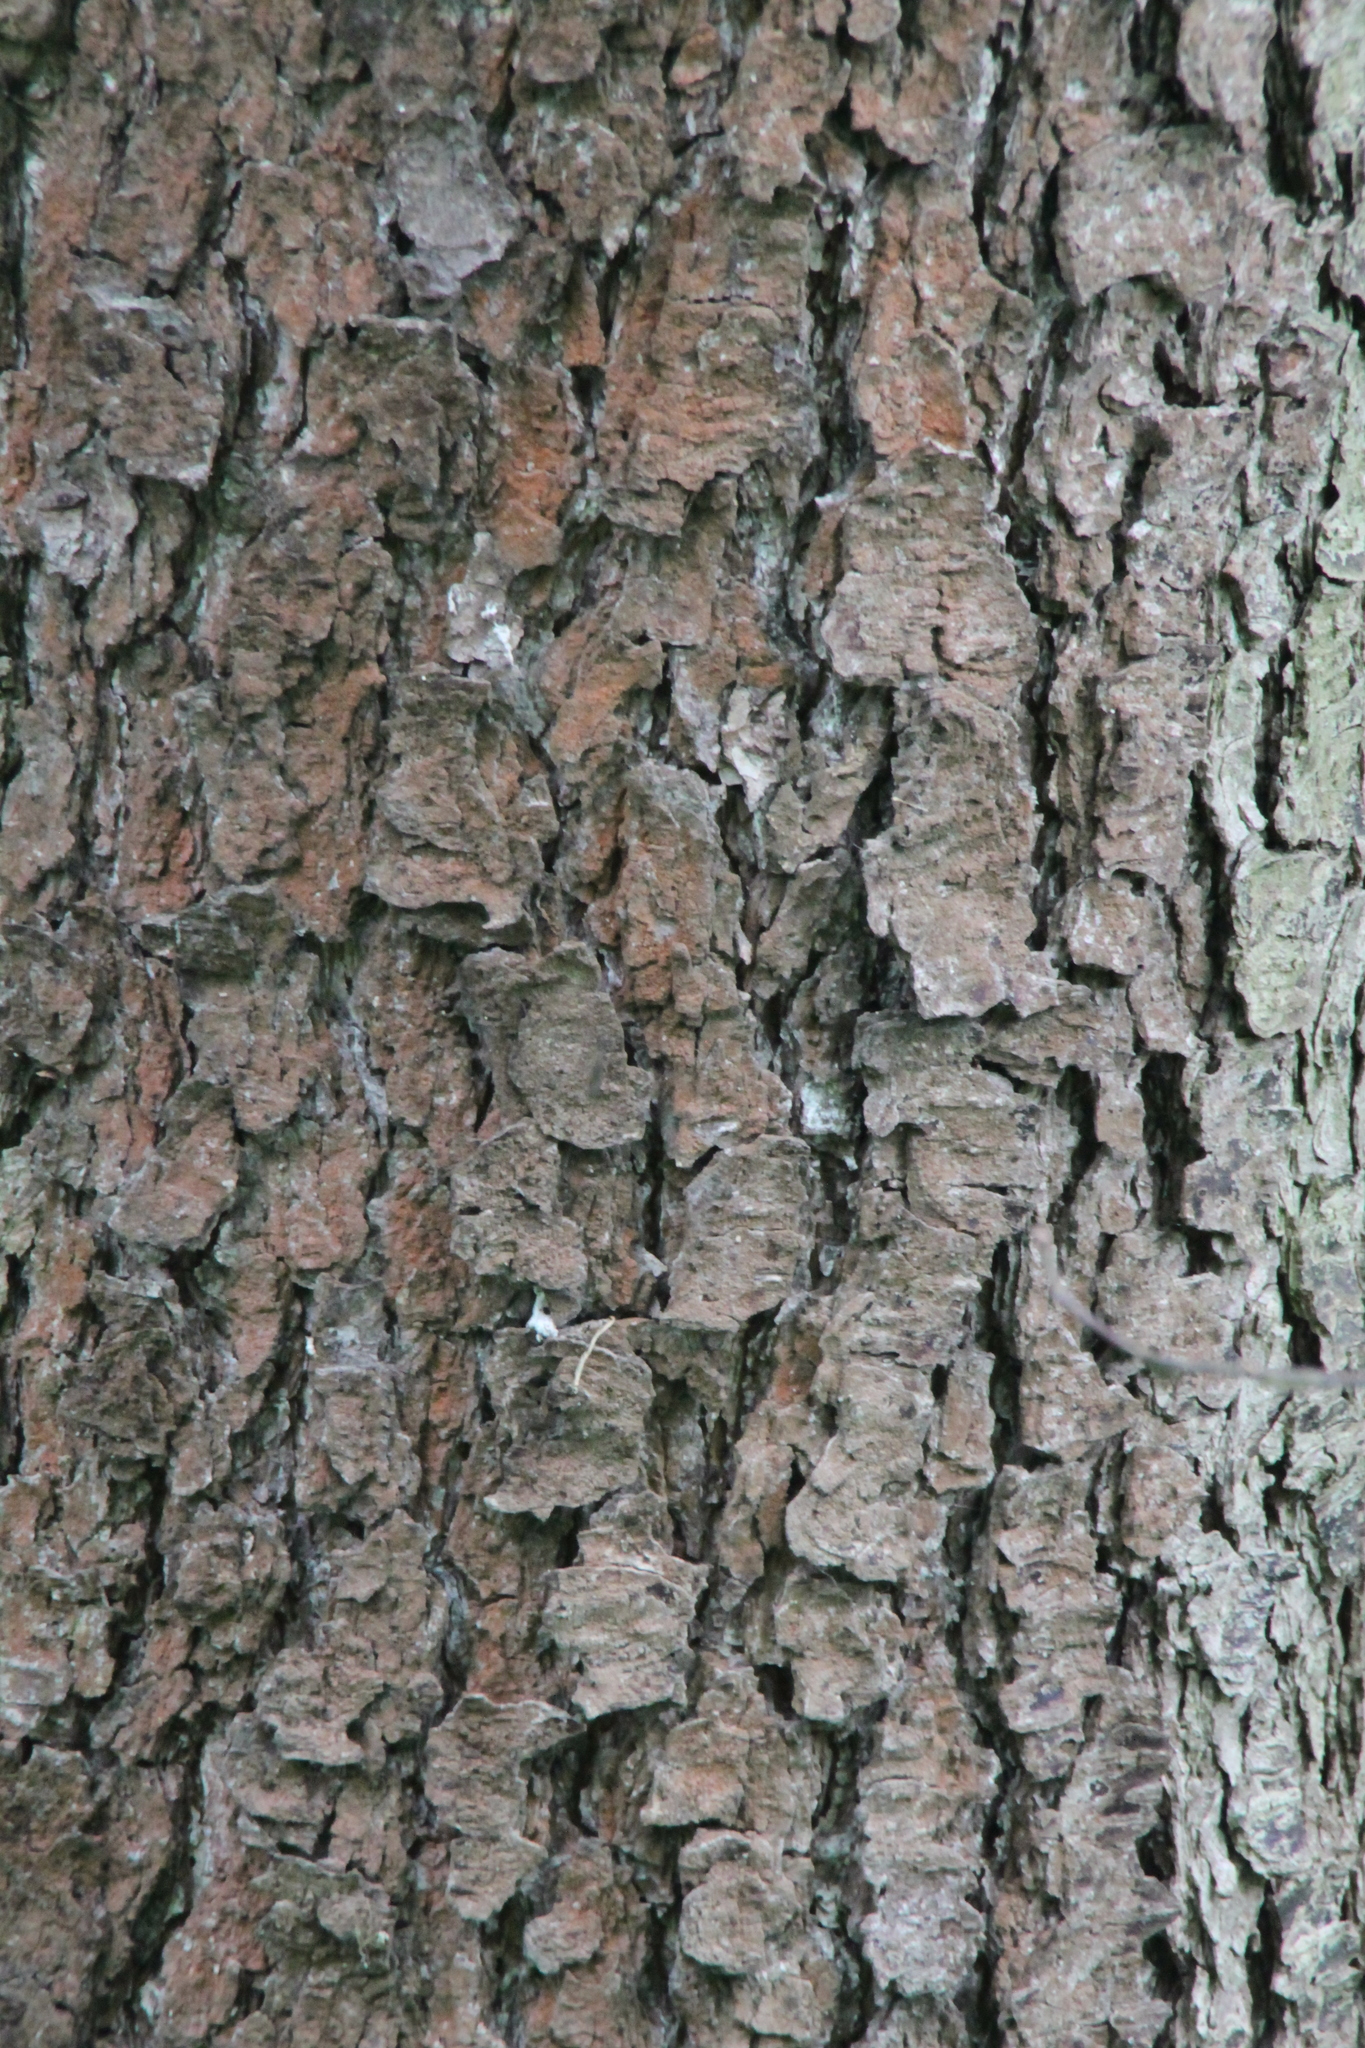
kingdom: Plantae
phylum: Tracheophyta
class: Magnoliopsida
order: Fagales
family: Betulaceae
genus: Alnus
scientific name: Alnus glutinosa
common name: Black alder
